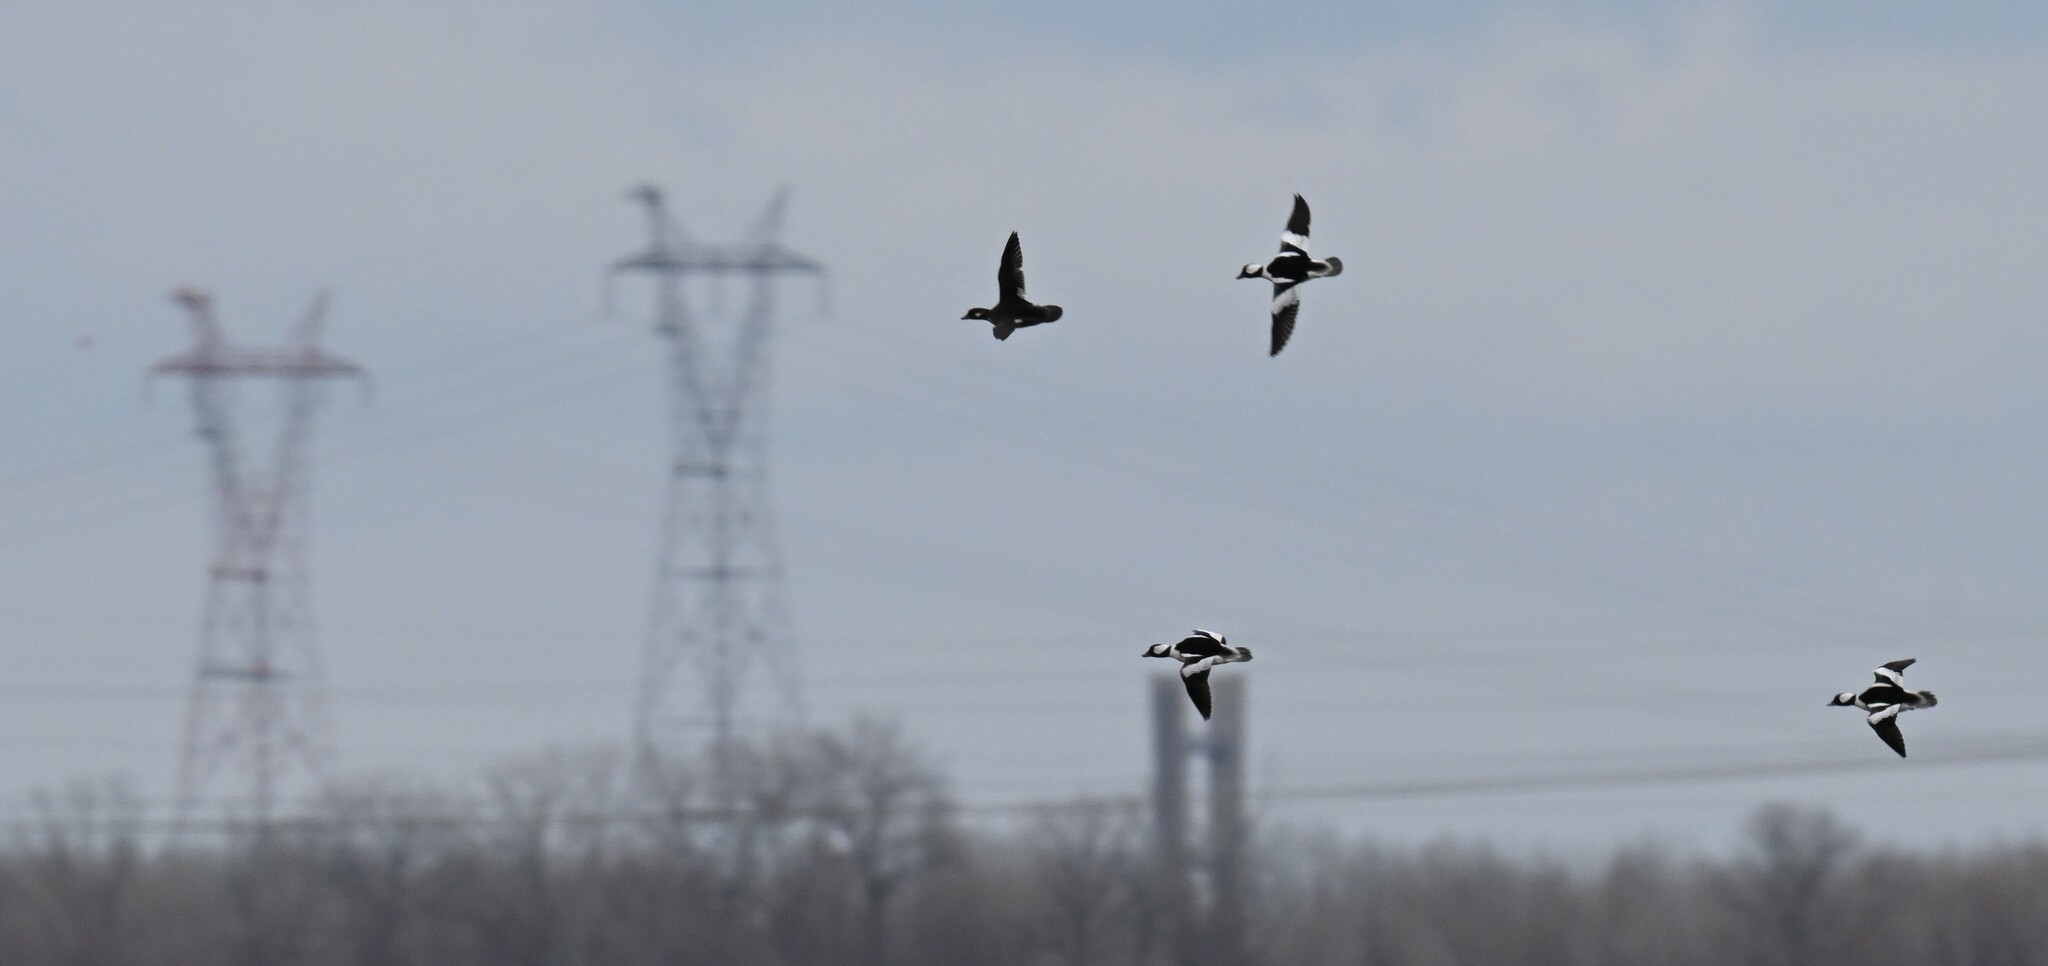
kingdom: Animalia
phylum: Chordata
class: Aves
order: Anseriformes
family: Anatidae
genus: Bucephala
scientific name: Bucephala albeola
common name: Bufflehead
